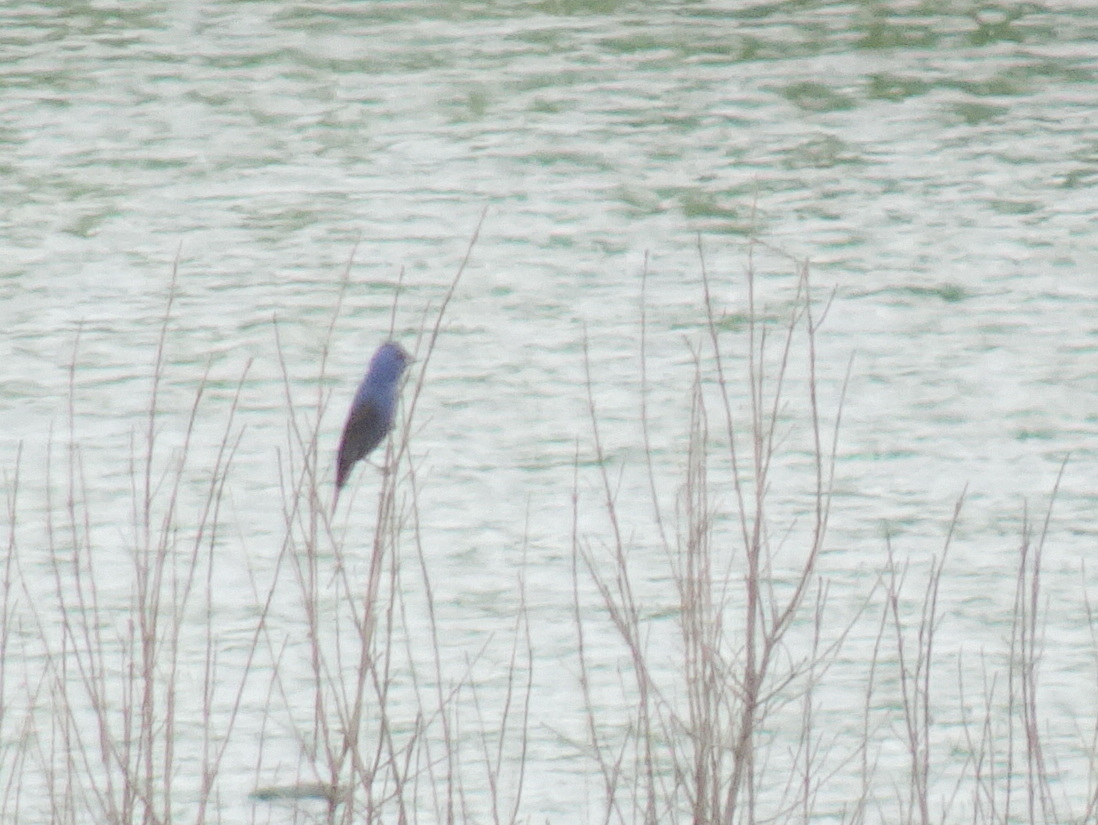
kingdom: Animalia
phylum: Chordata
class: Aves
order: Passeriformes
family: Cardinalidae
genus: Passerina
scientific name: Passerina caerulea
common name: Blue grosbeak
